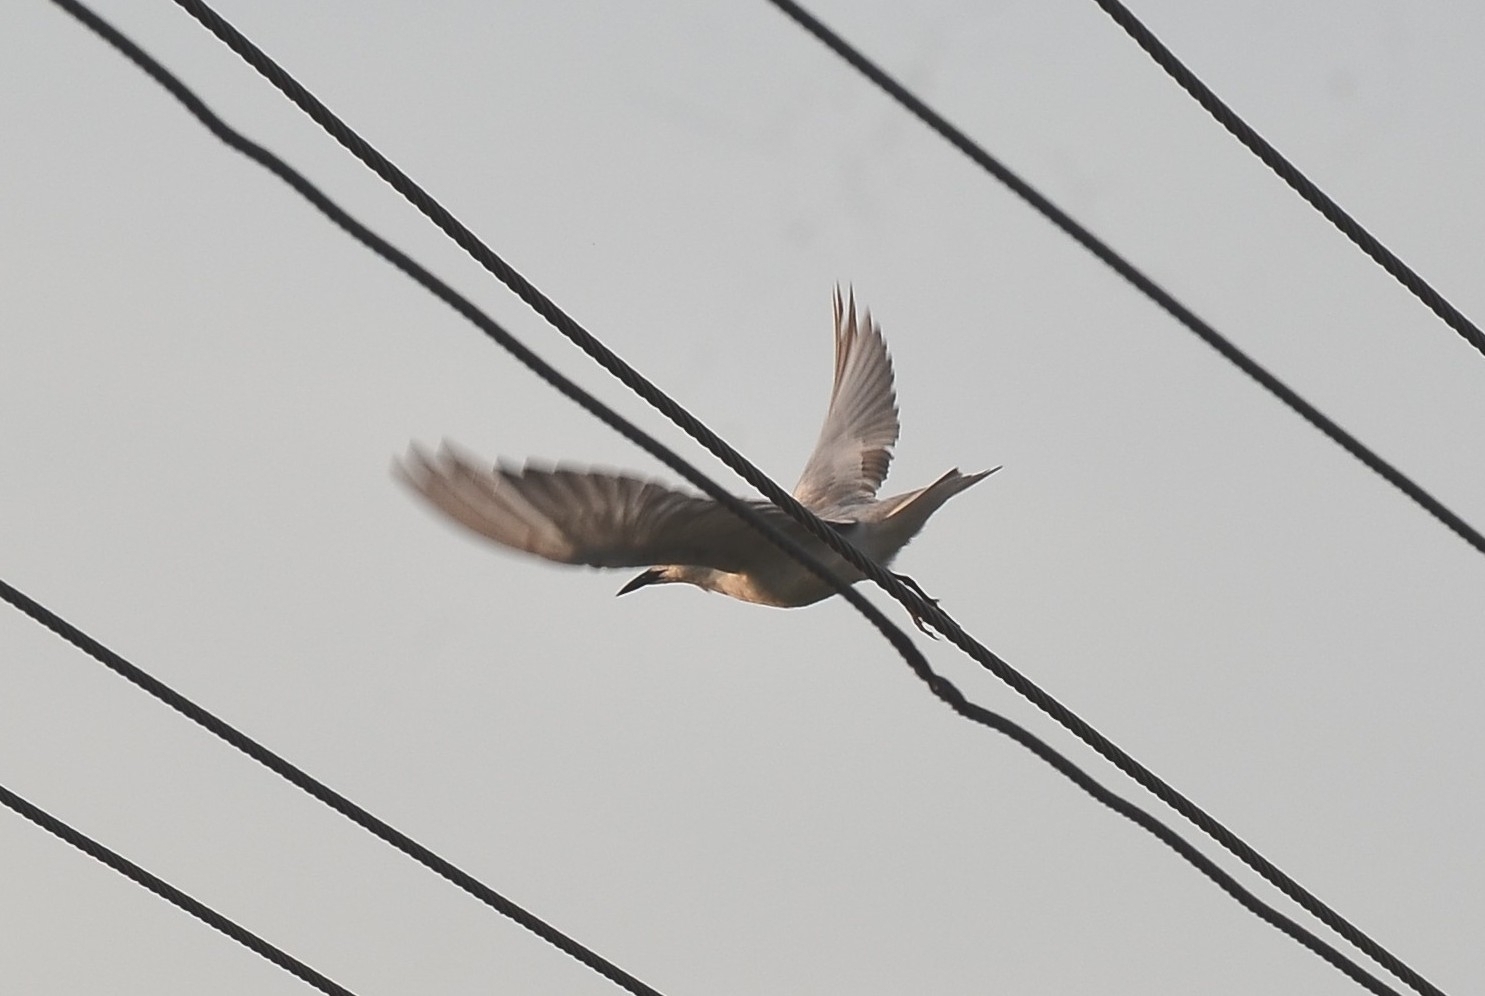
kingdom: Animalia
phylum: Chordata
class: Aves
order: Charadriiformes
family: Laridae
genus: Chlidonias
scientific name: Chlidonias hybrida
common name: Whiskered tern
